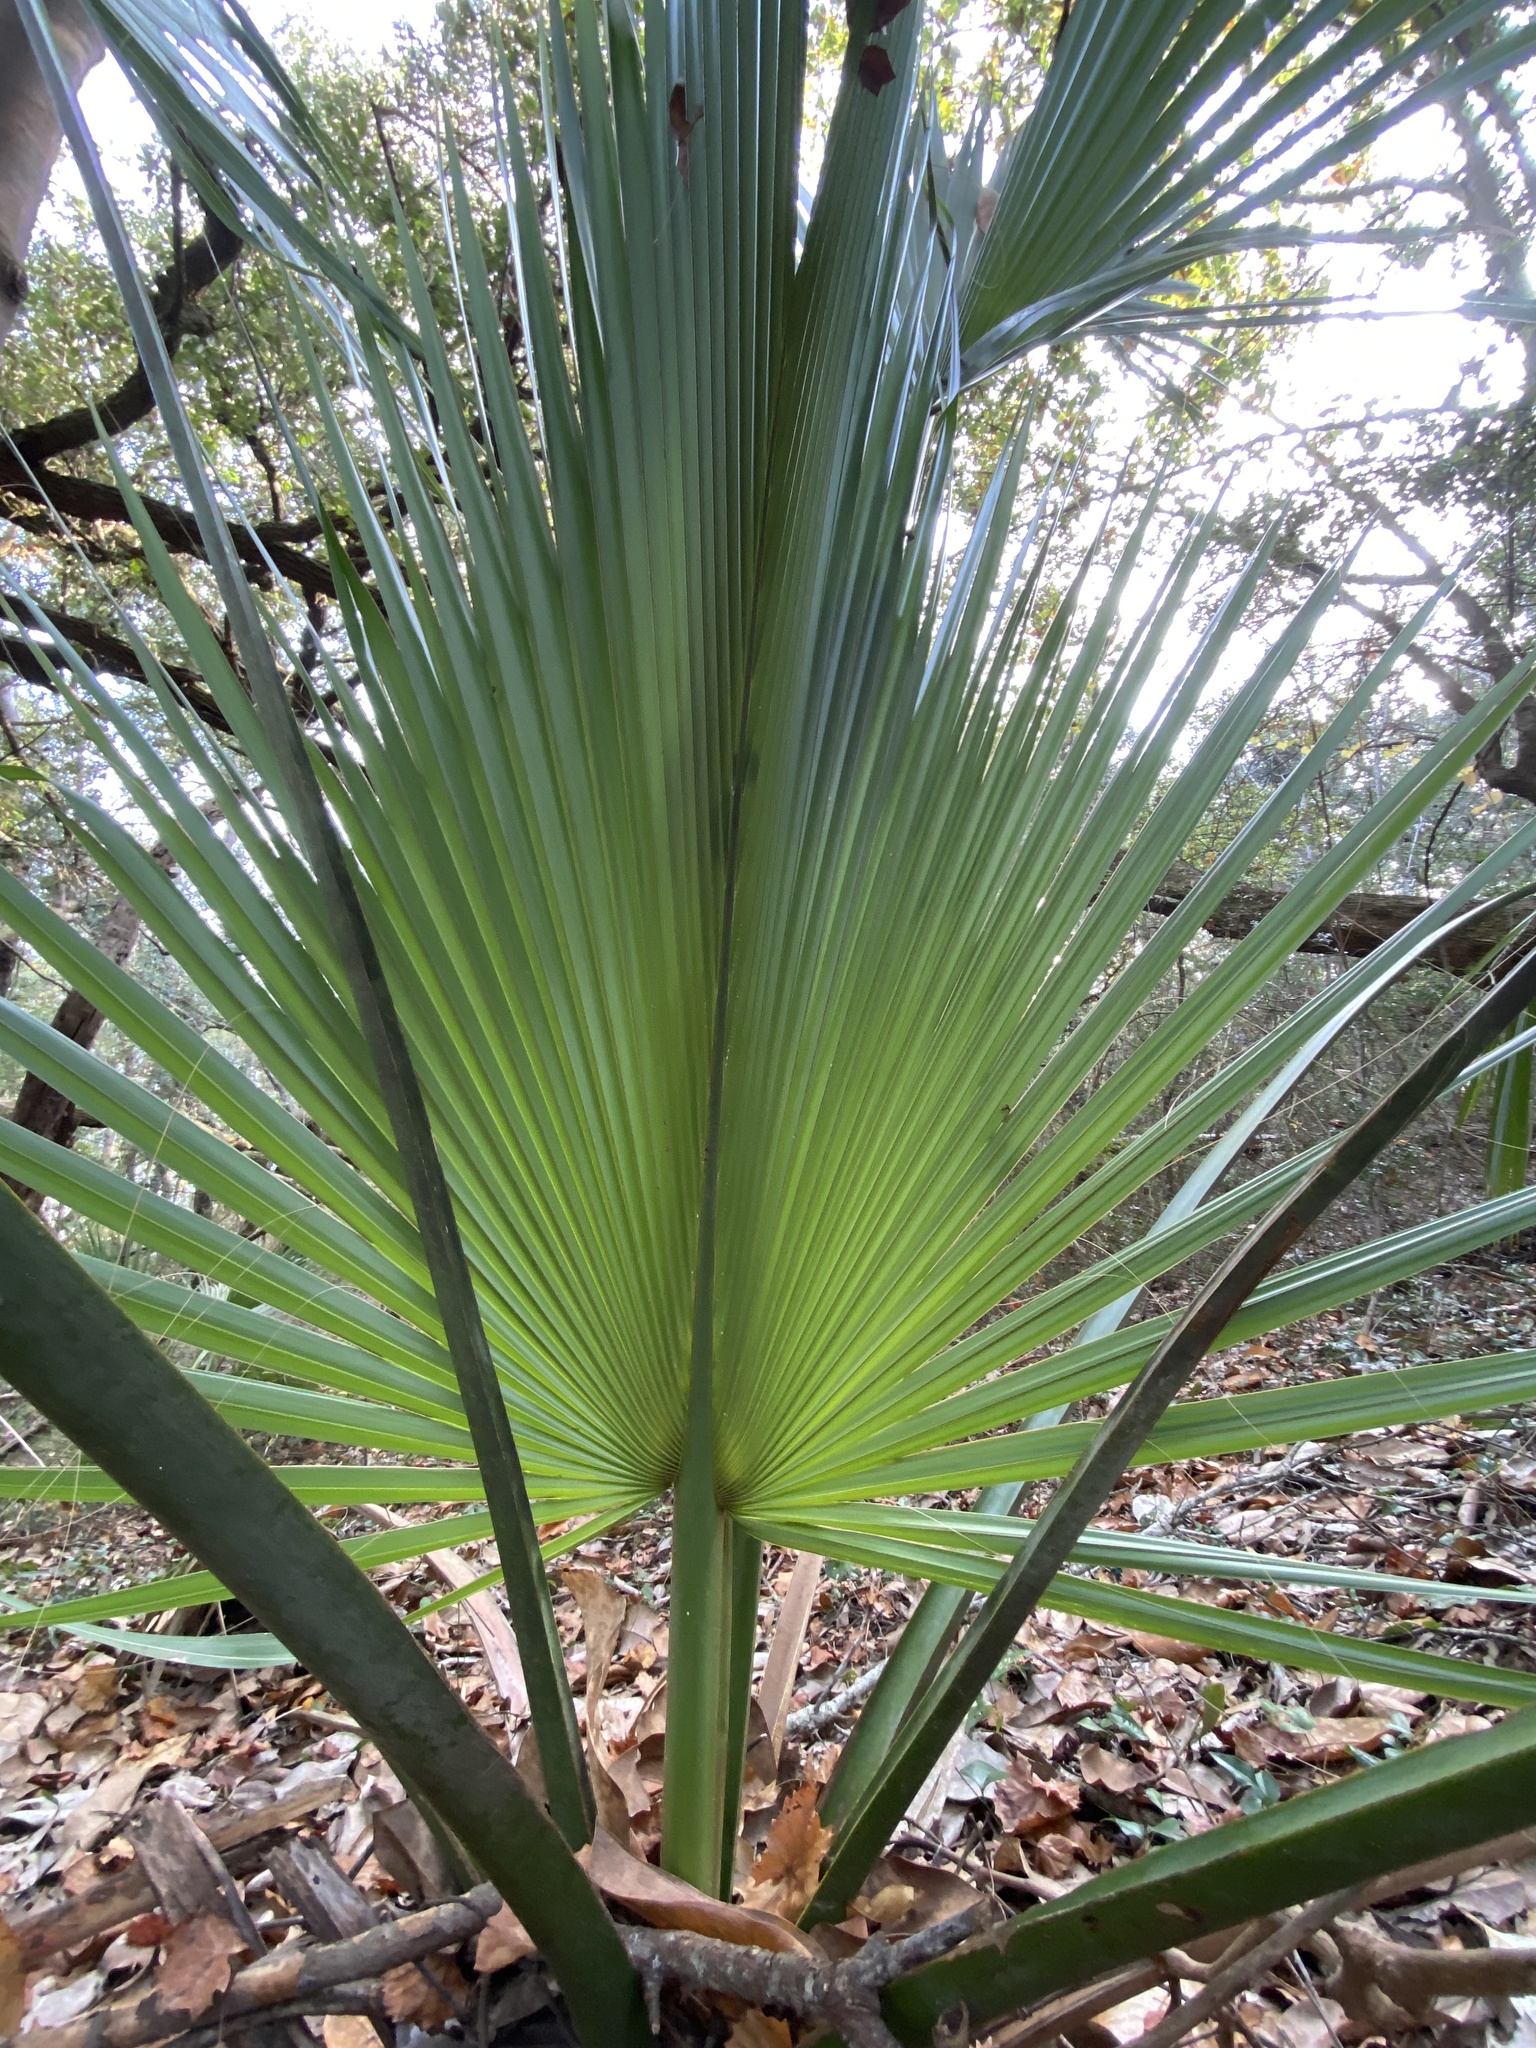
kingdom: Plantae
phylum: Tracheophyta
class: Liliopsida
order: Arecales
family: Arecaceae
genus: Sabal
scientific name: Sabal palmetto
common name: Blue palmetto
